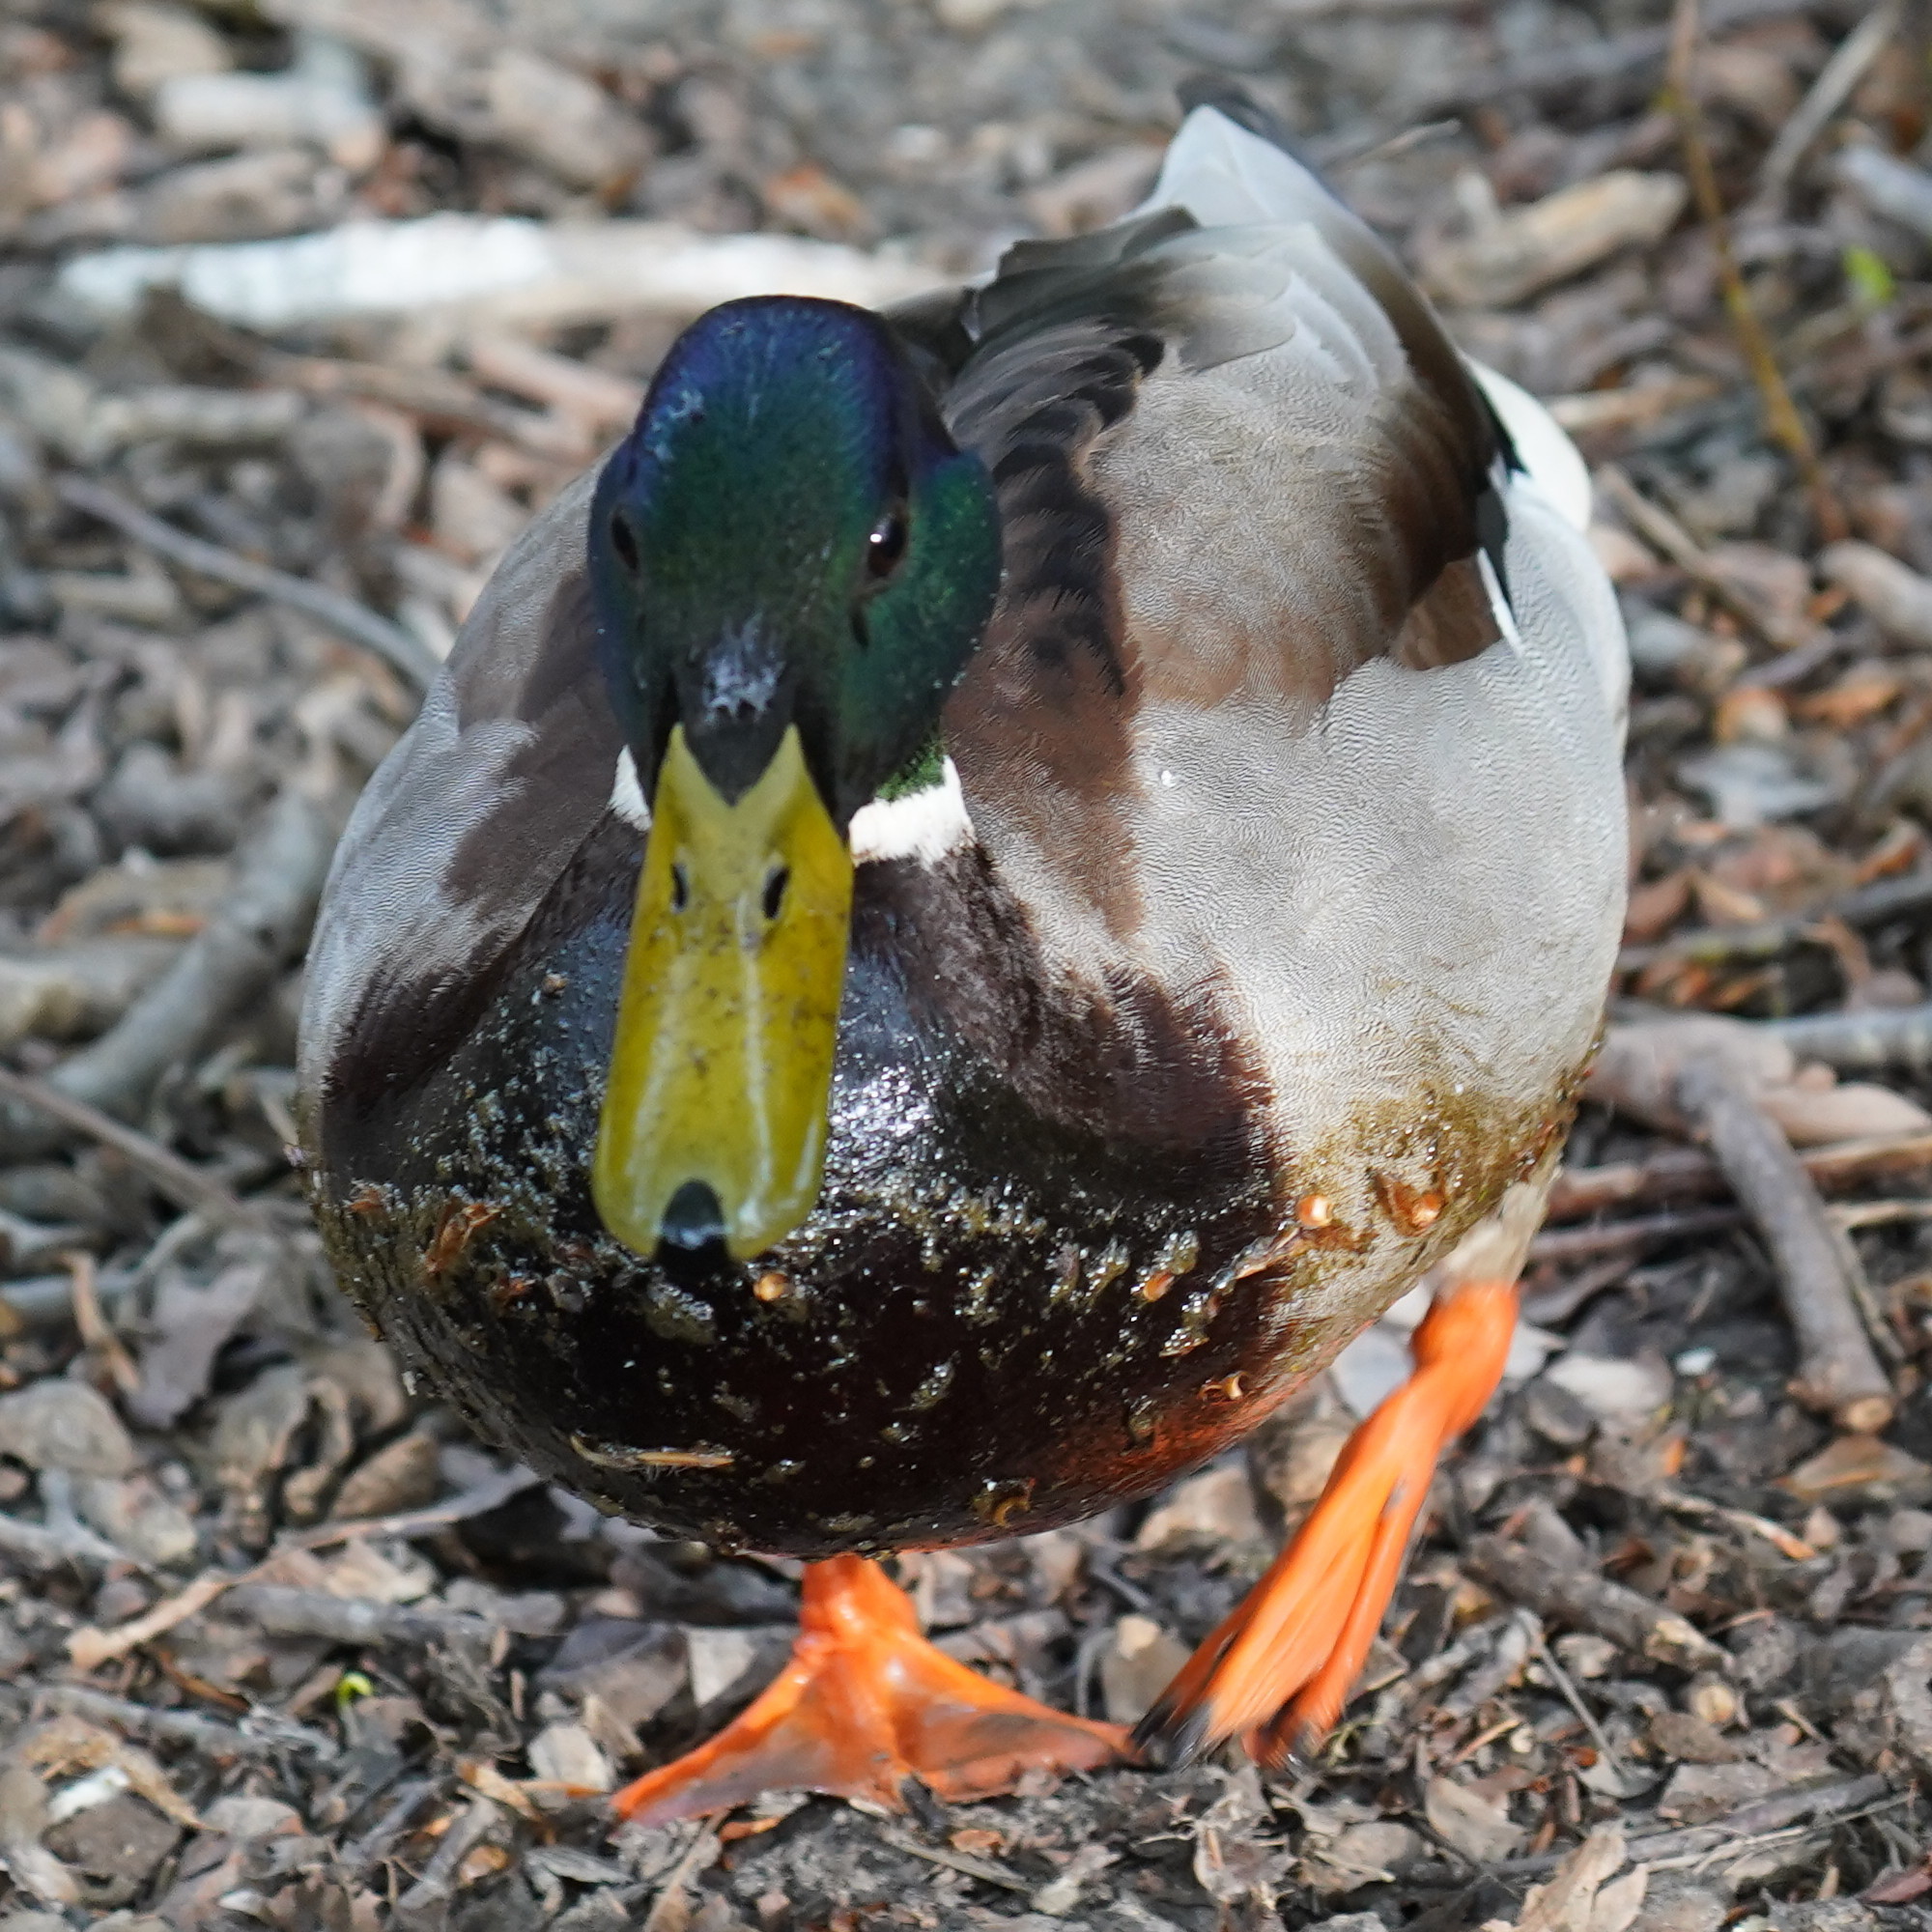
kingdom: Animalia
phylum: Chordata
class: Aves
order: Anseriformes
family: Anatidae
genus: Anas
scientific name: Anas platyrhynchos
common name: Mallard
